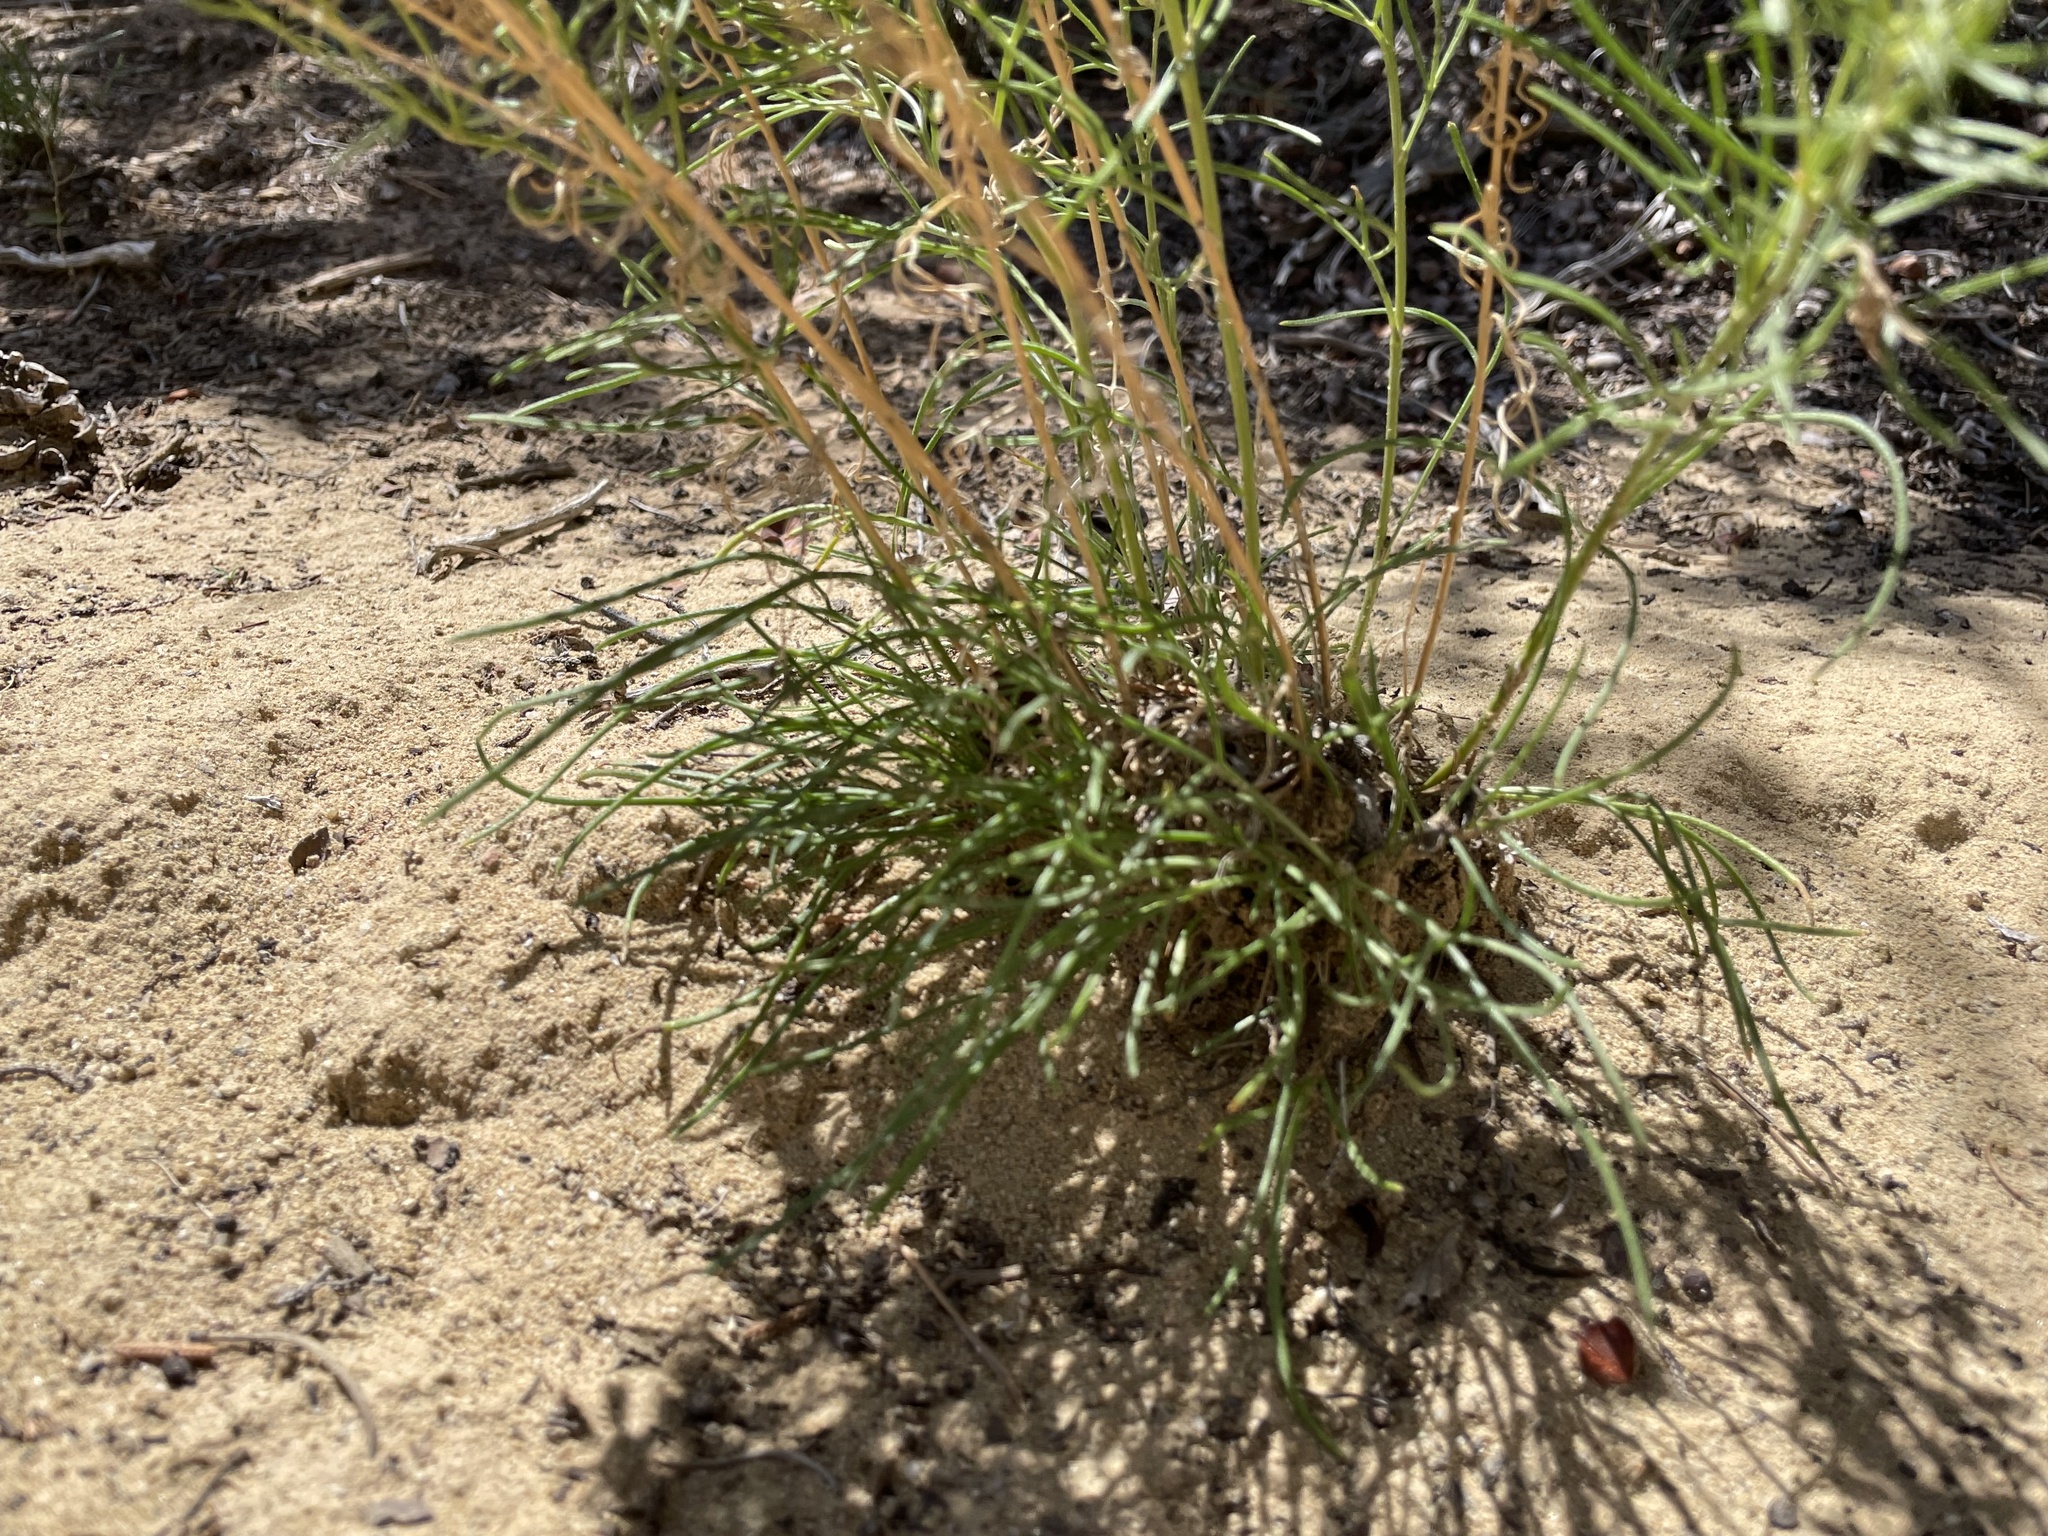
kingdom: Plantae
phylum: Tracheophyta
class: Magnoliopsida
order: Asterales
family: Asteraceae
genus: Hymenoxys
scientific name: Hymenoxys richardsonii
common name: Pingue rubberweed
